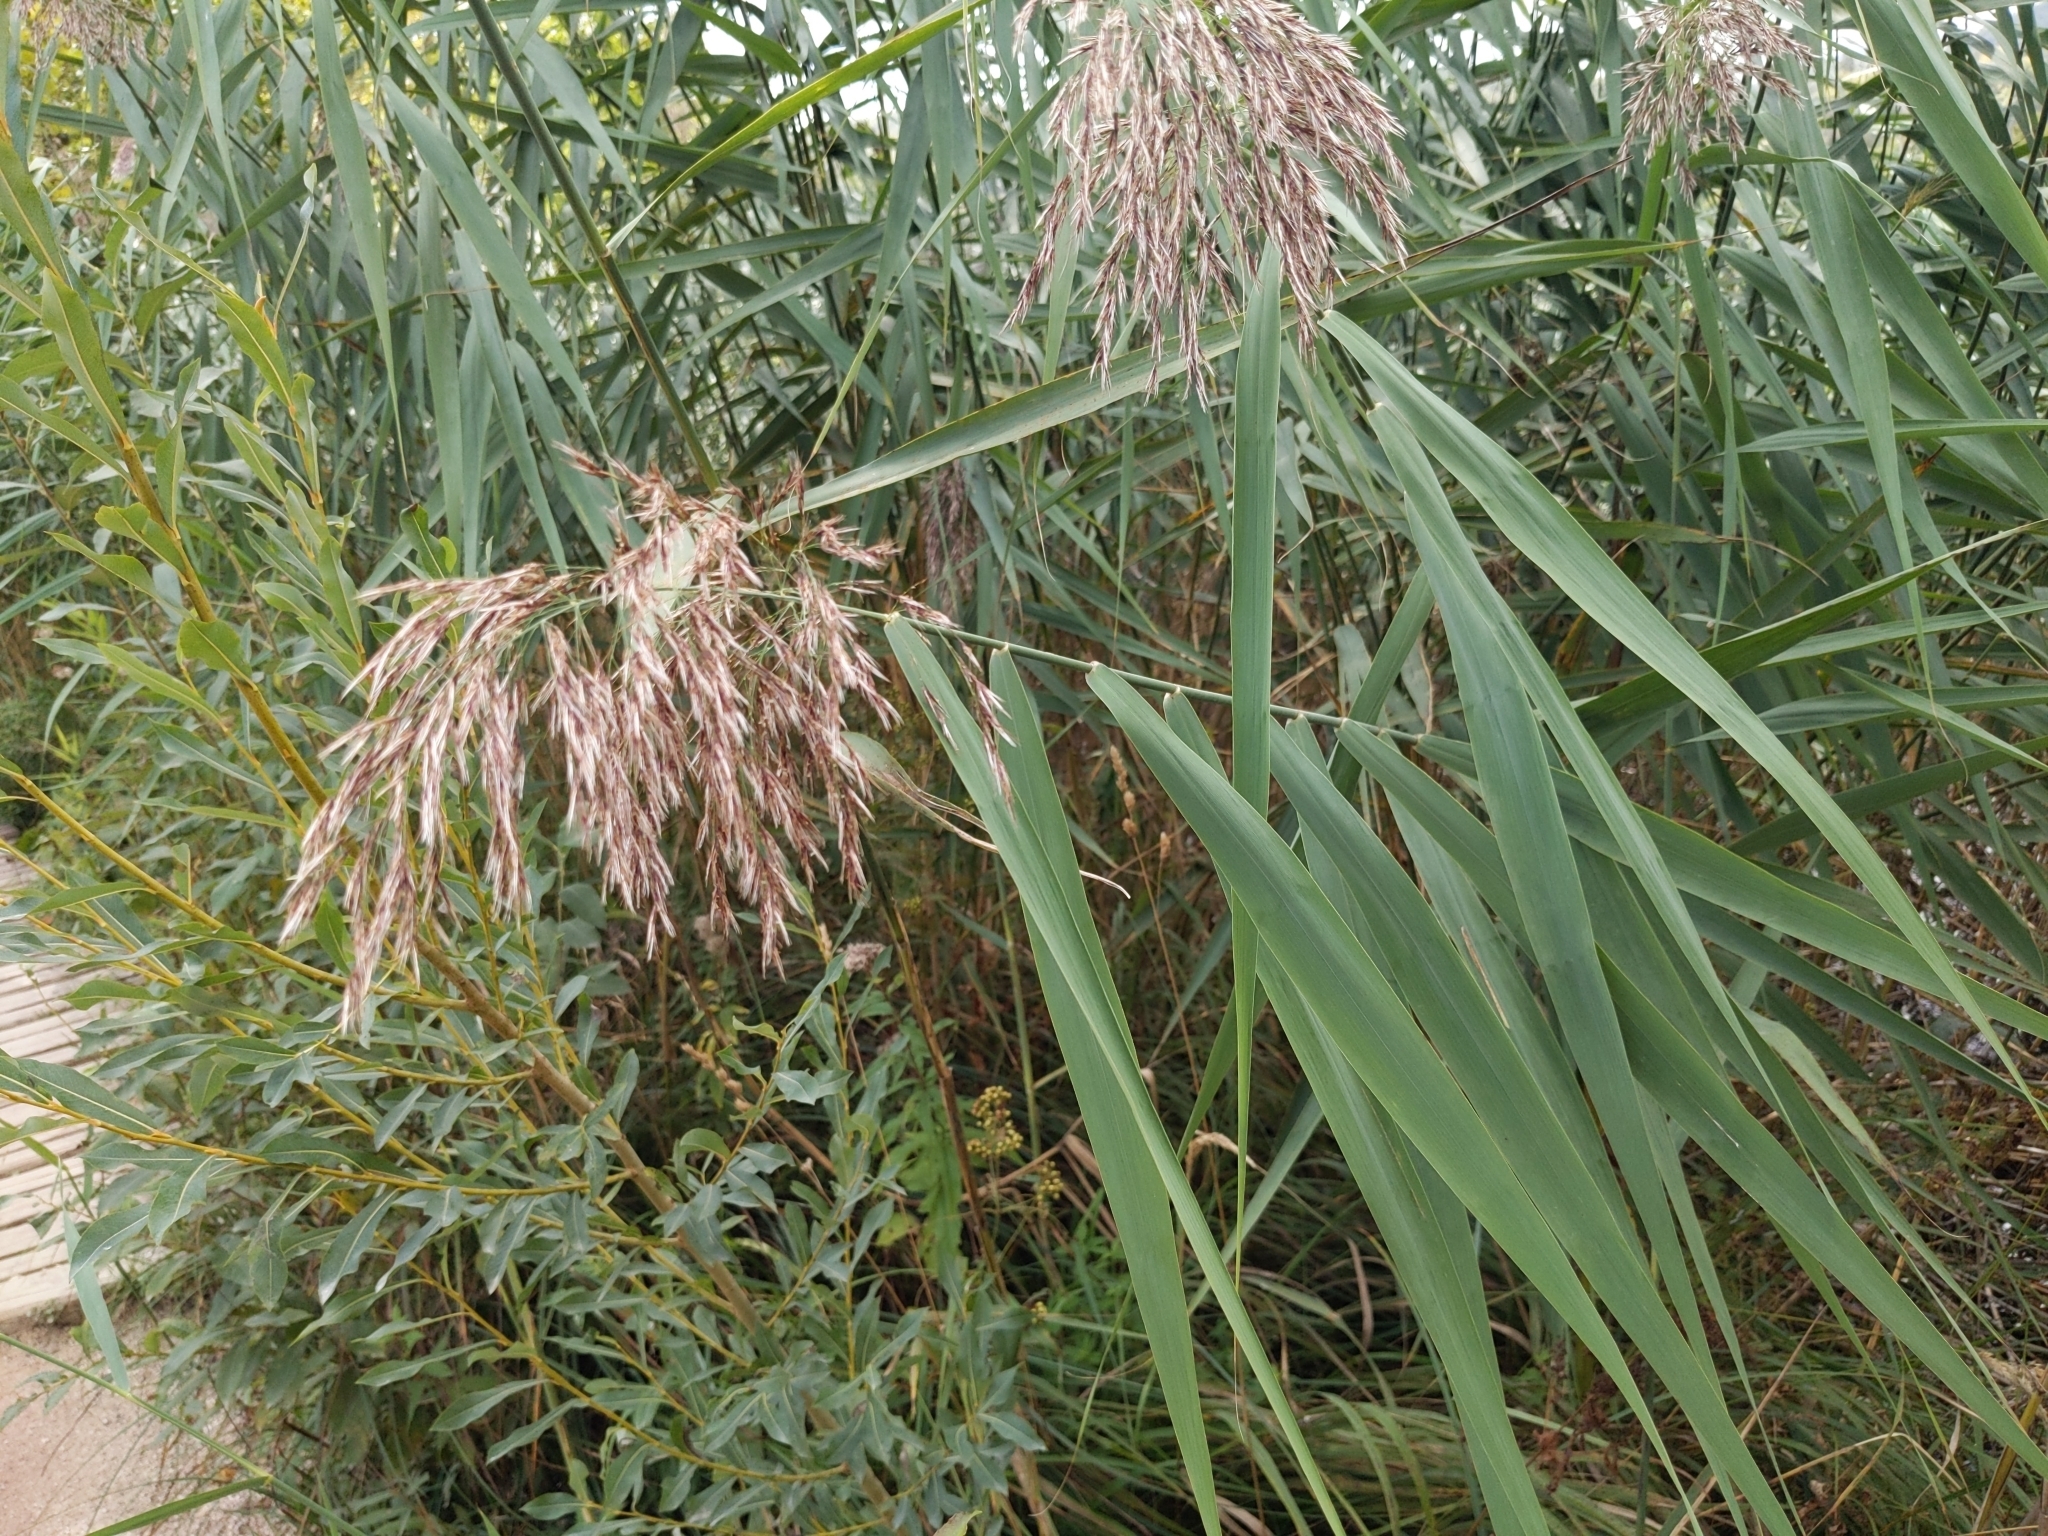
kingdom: Plantae
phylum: Tracheophyta
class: Liliopsida
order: Poales
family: Poaceae
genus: Phragmites
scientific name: Phragmites australis
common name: Common reed
